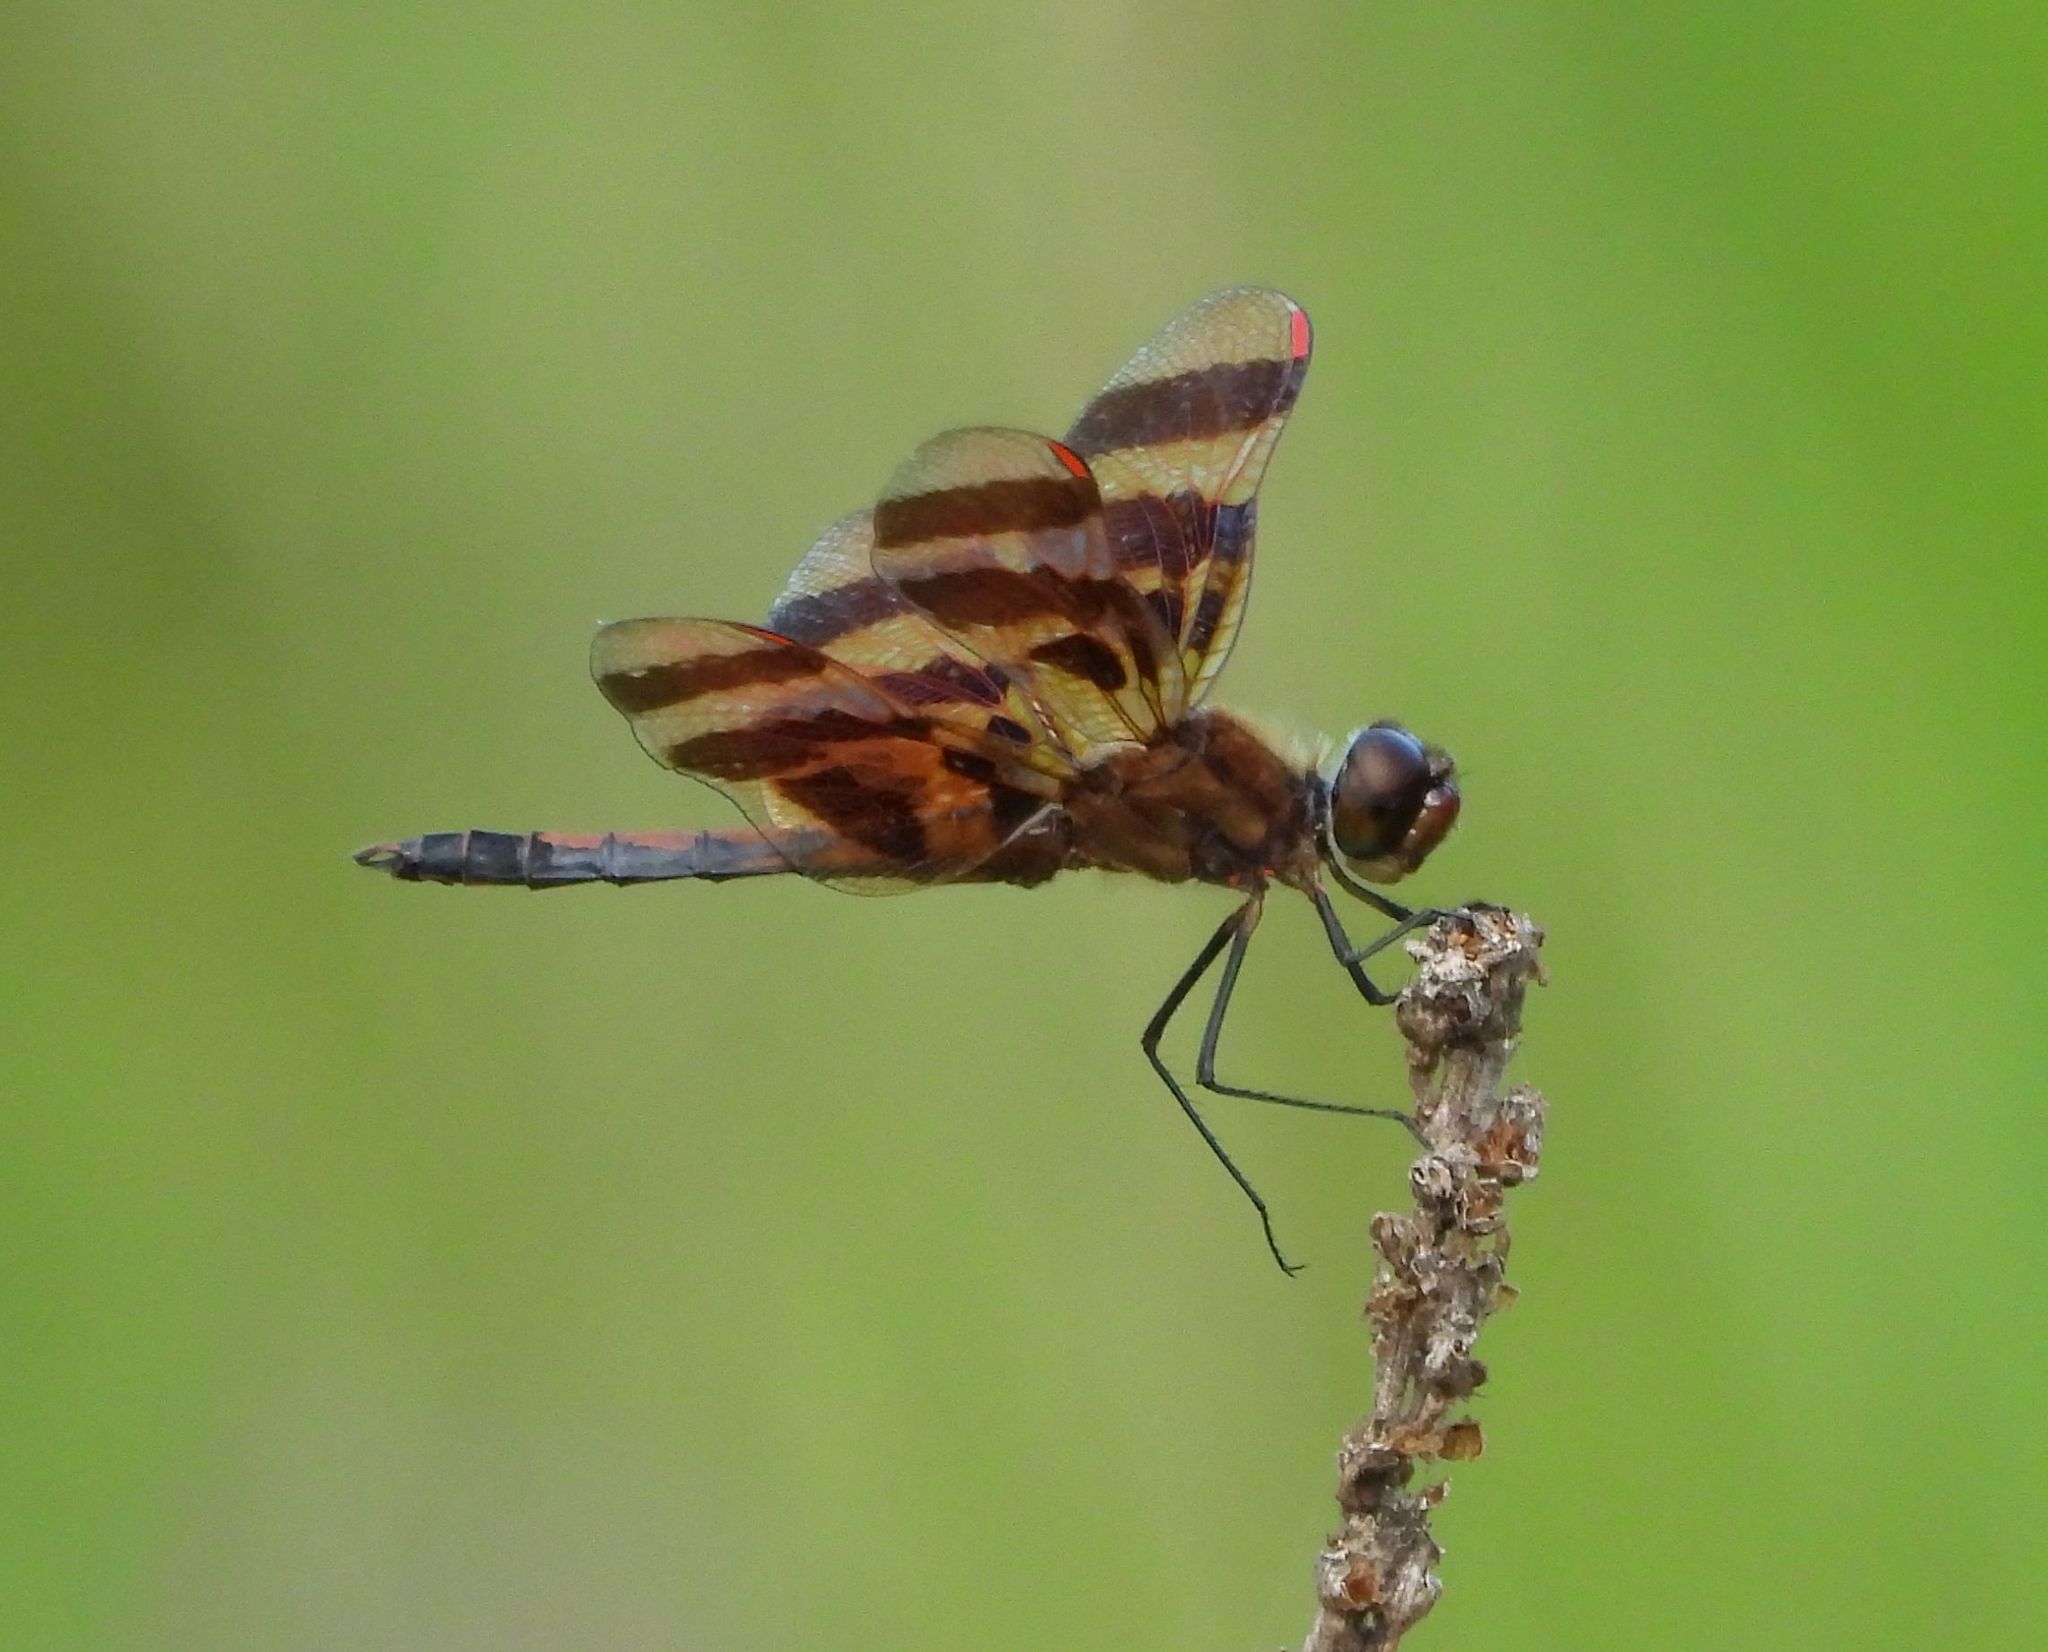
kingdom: Animalia
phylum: Arthropoda
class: Insecta
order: Odonata
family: Libellulidae
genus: Celithemis
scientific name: Celithemis eponina
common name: Halloween pennant
